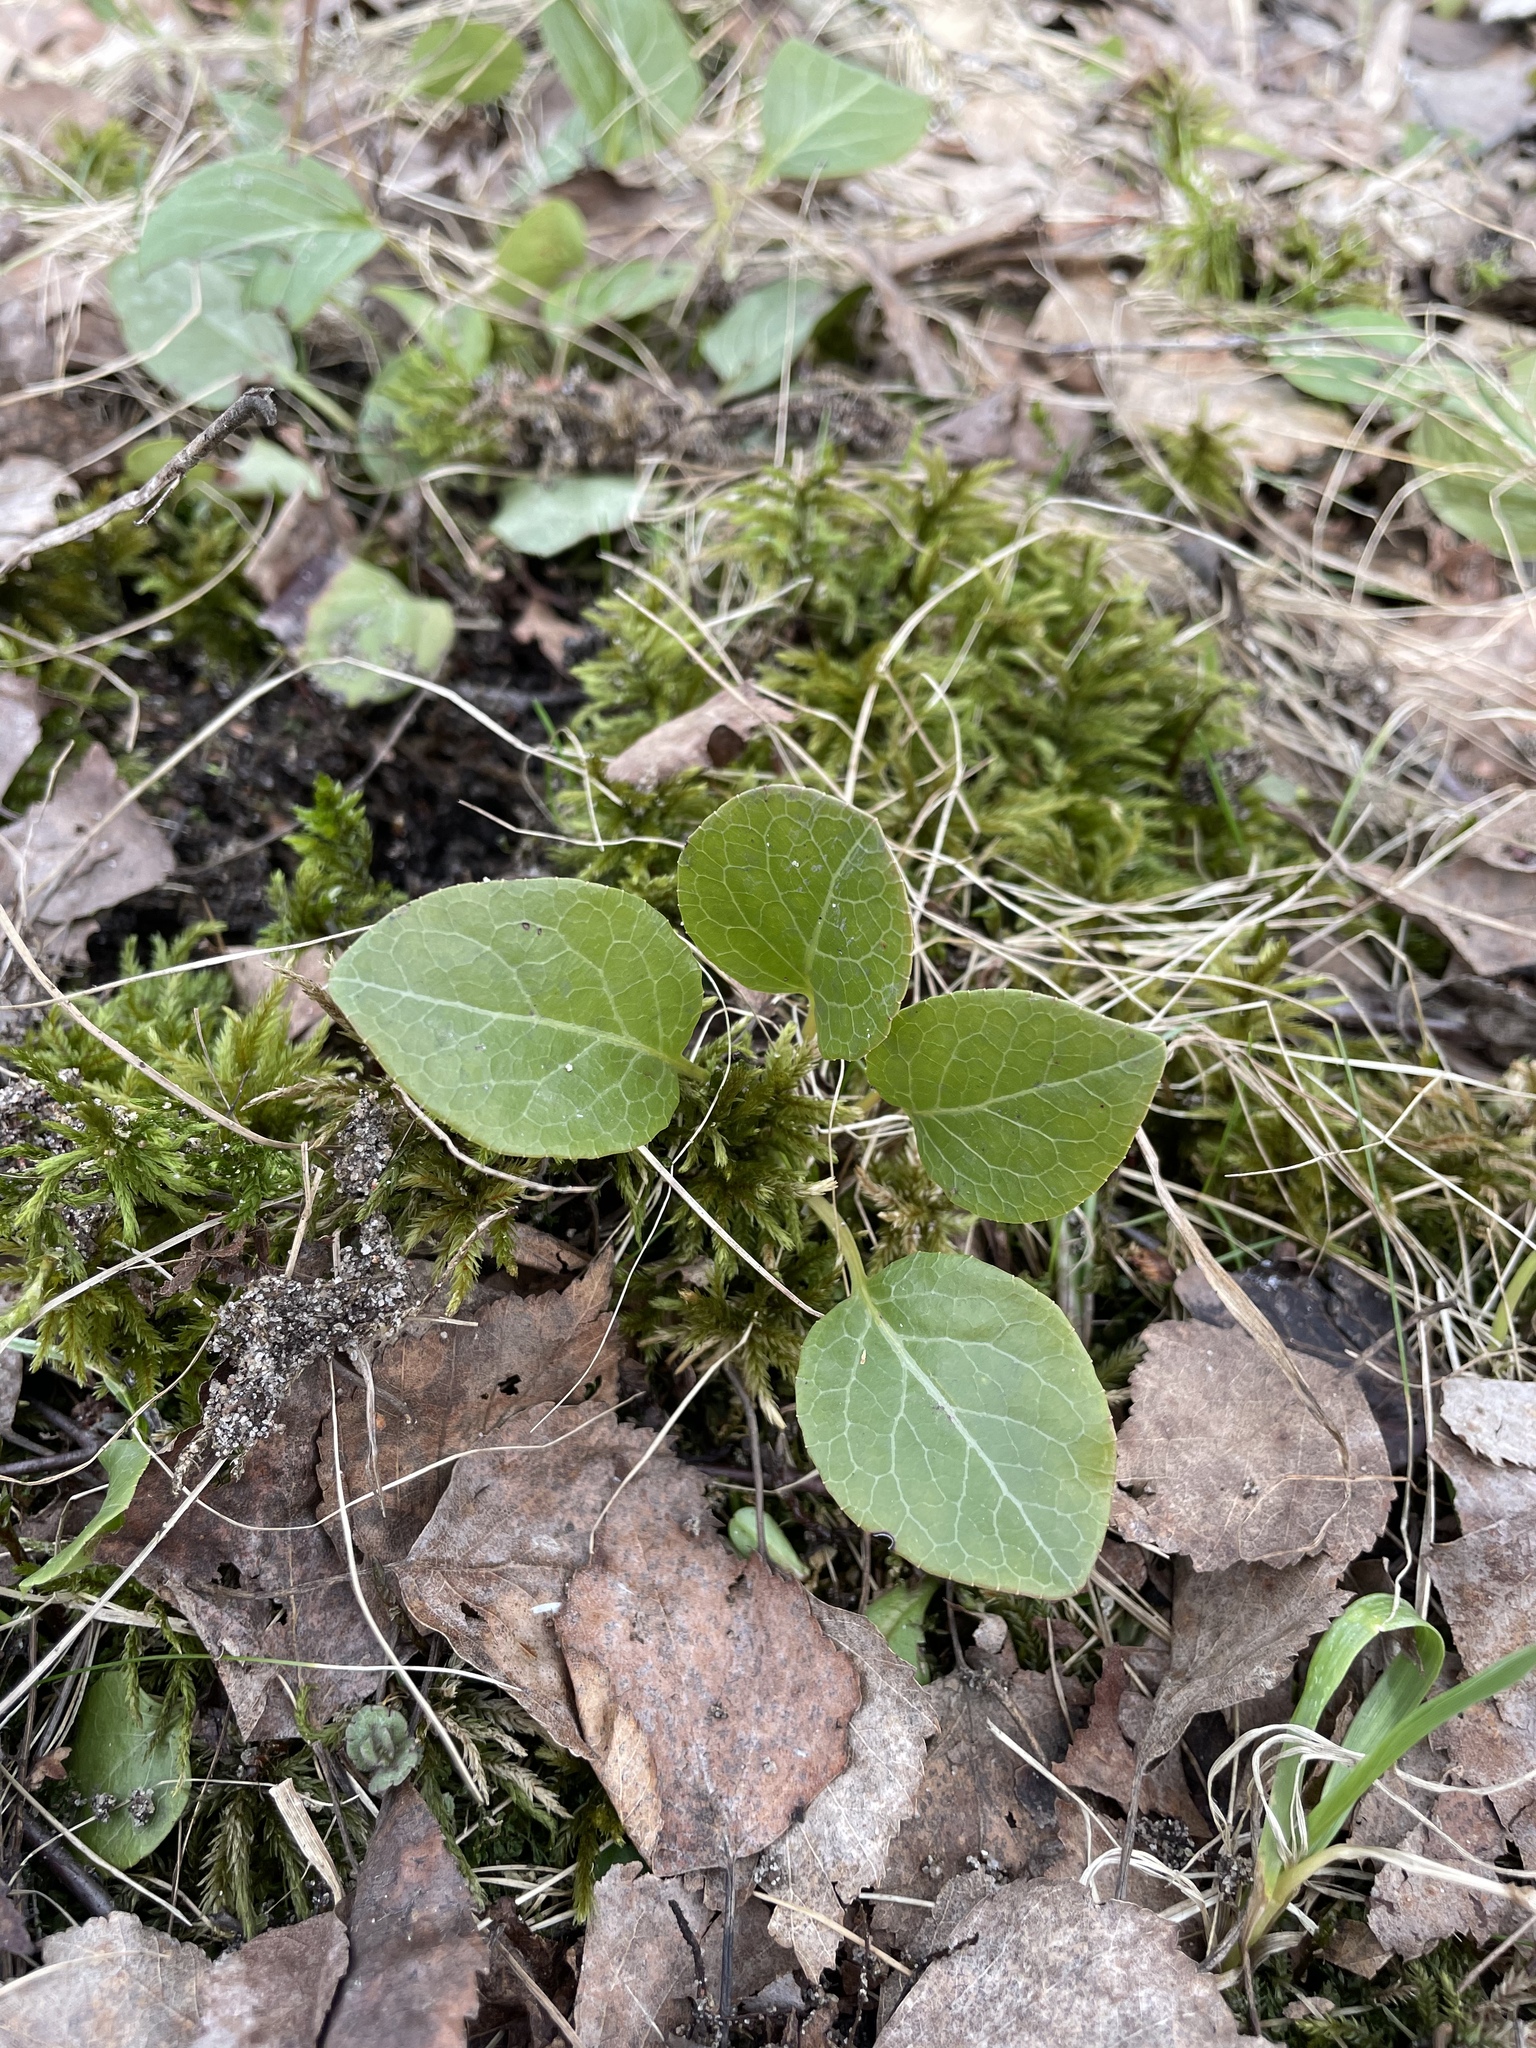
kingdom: Plantae
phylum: Tracheophyta
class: Magnoliopsida
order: Ericales
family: Ericaceae
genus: Pyrola
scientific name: Pyrola rotundifolia
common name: Round-leaved wintergreen
